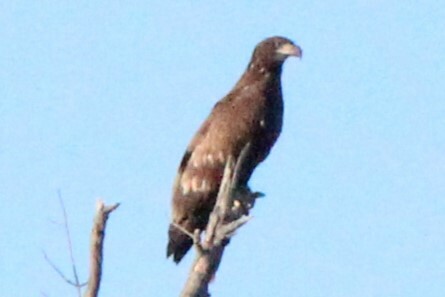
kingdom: Animalia
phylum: Chordata
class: Aves
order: Accipitriformes
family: Accipitridae
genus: Haliaeetus
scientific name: Haliaeetus leucocephalus
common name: Bald eagle
